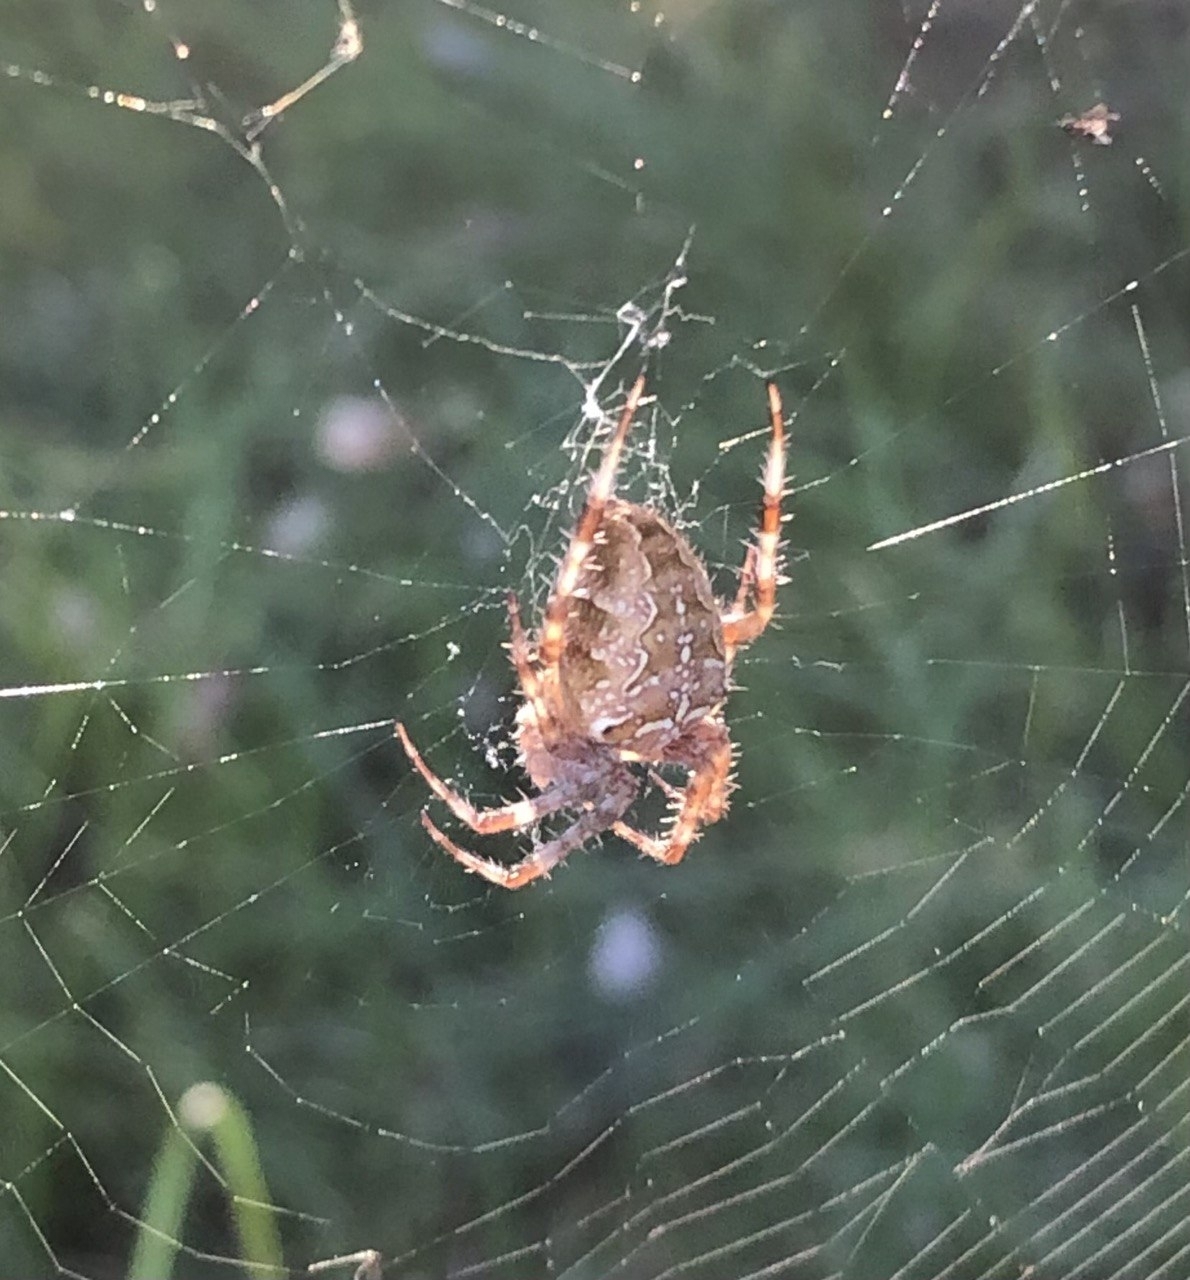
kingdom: Animalia
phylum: Arthropoda
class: Arachnida
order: Araneae
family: Araneidae
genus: Araneus
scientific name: Araneus diadematus
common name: Cross orbweaver
